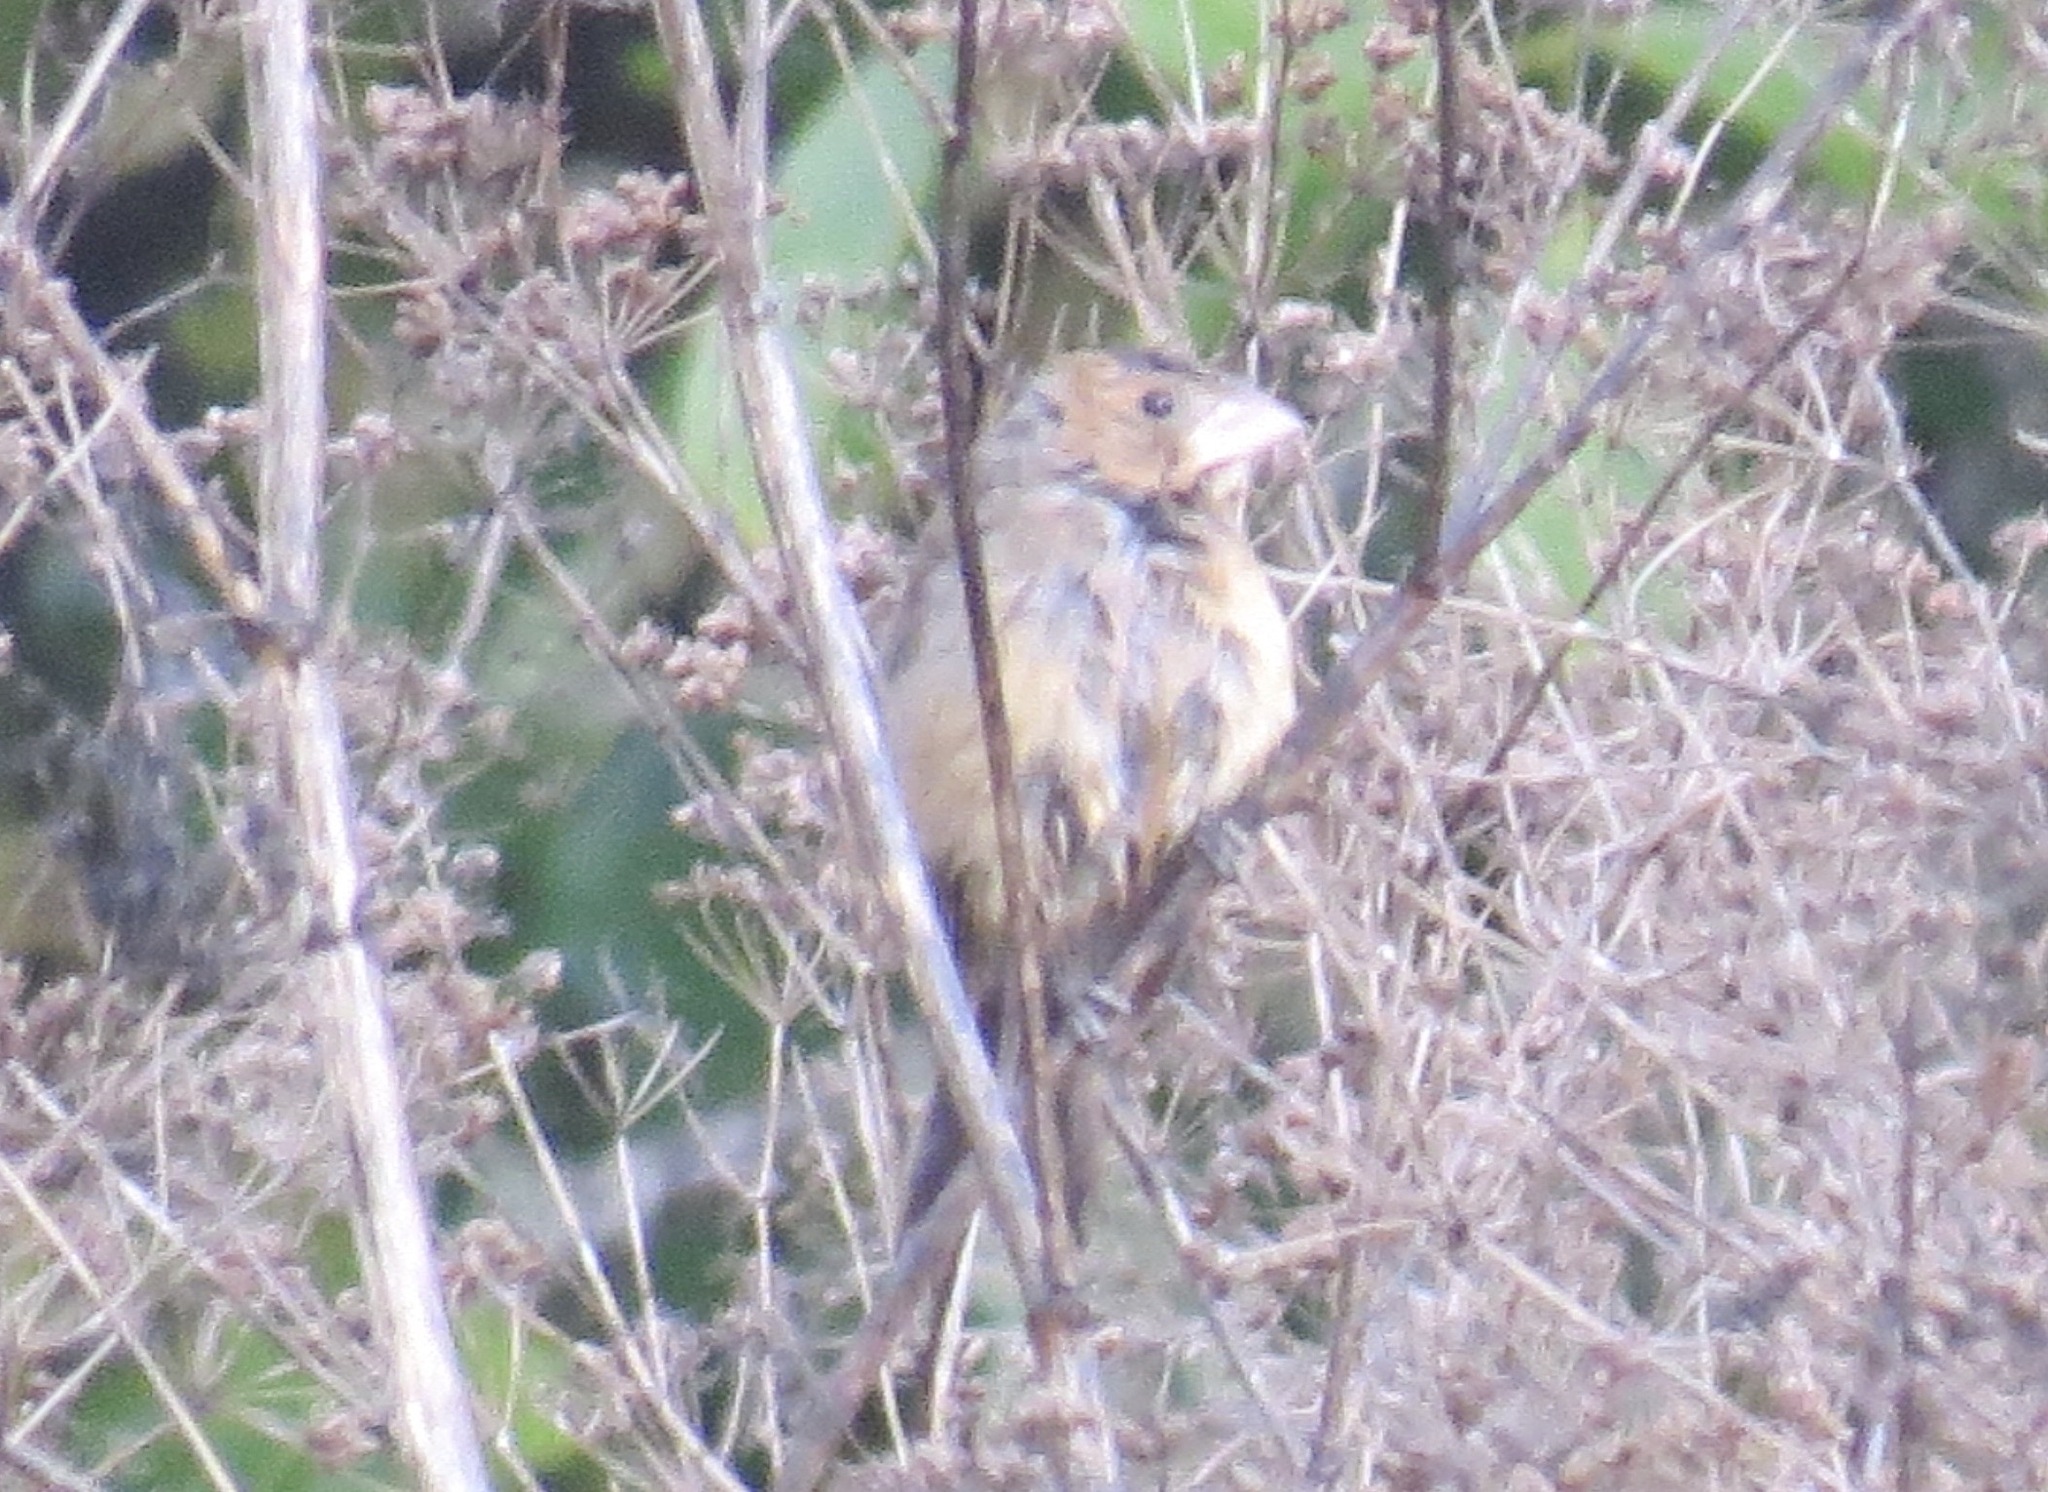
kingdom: Animalia
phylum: Chordata
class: Aves
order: Passeriformes
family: Cardinalidae
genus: Passerina
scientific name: Passerina caerulea
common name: Blue grosbeak
